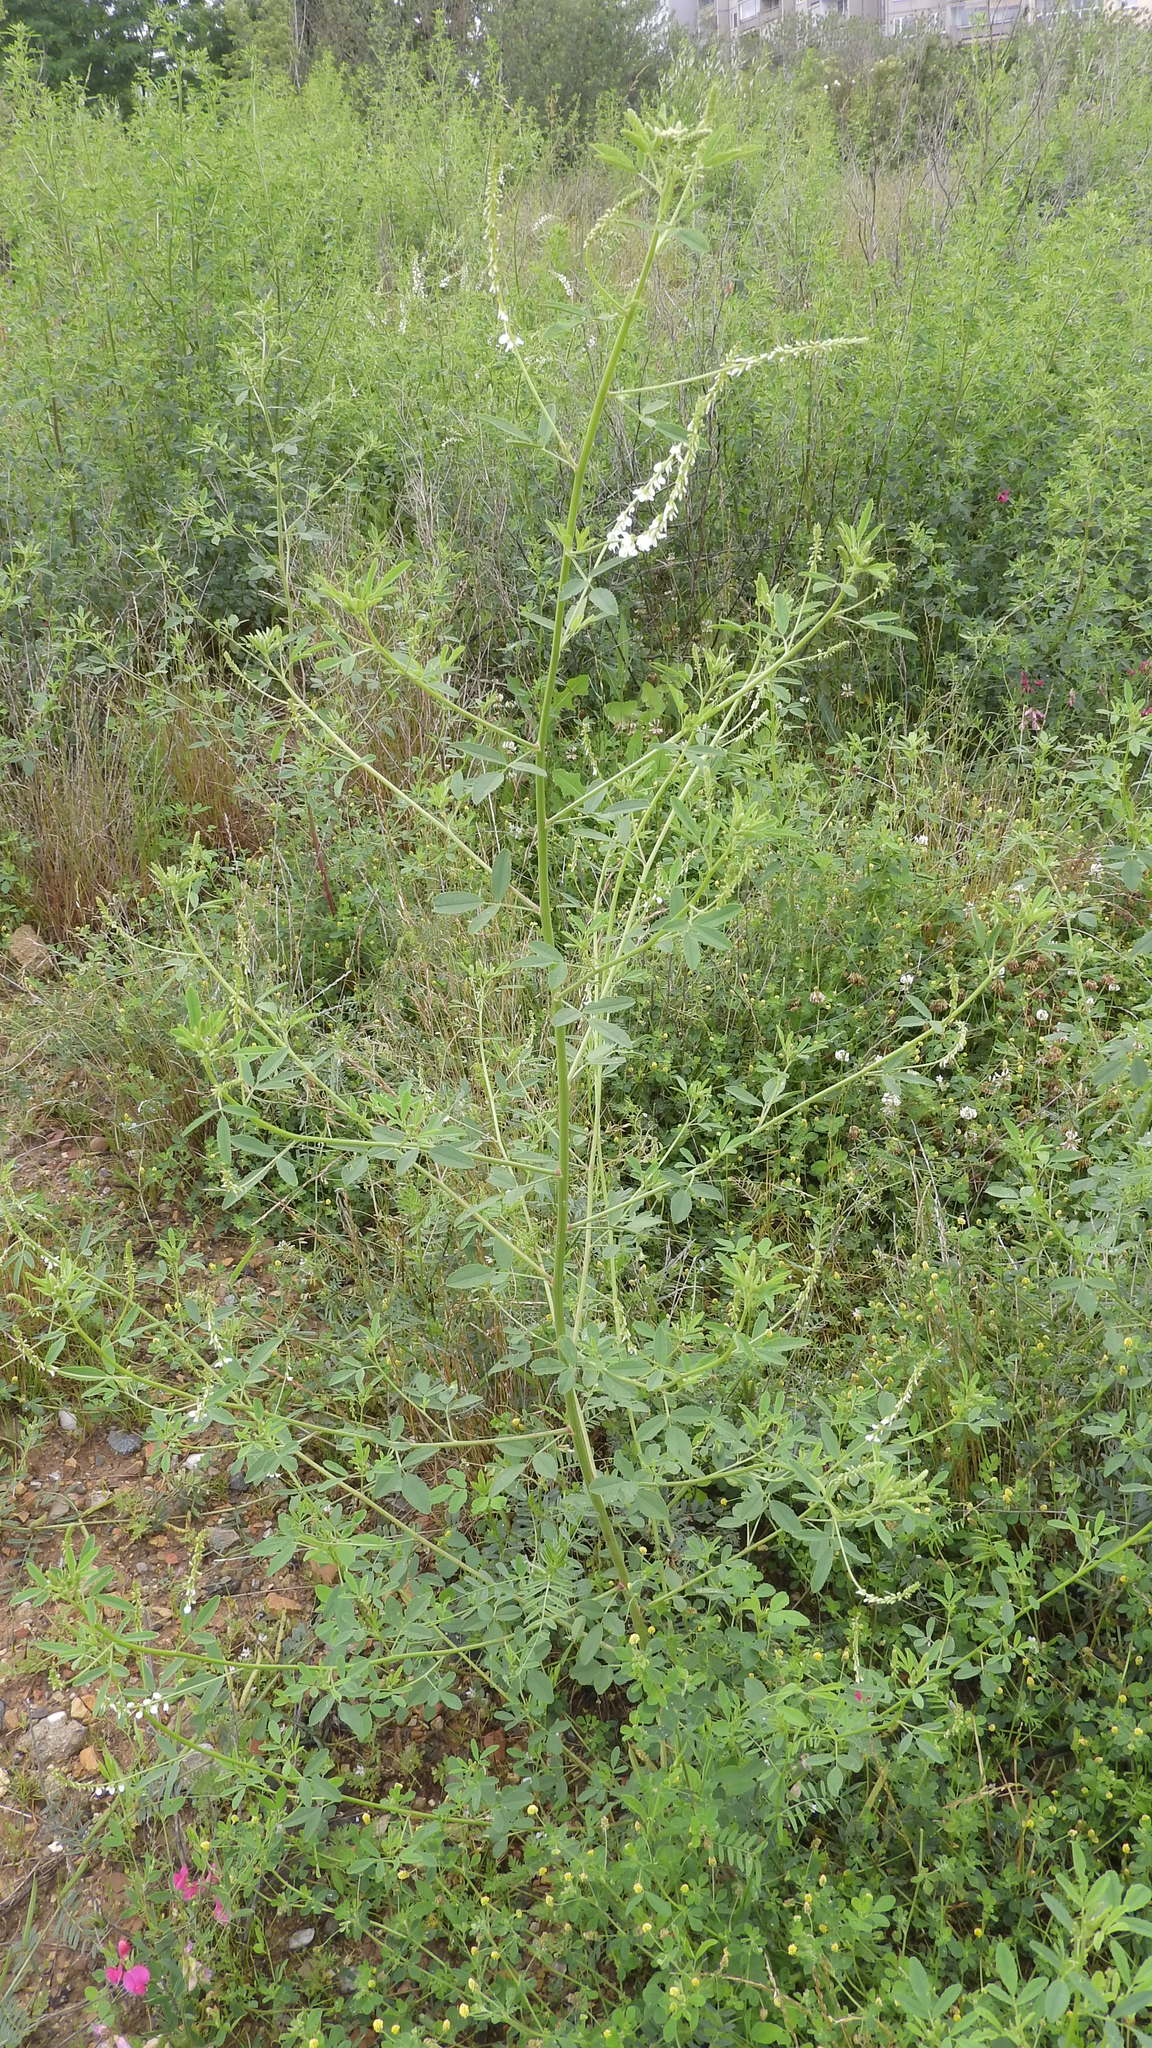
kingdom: Plantae
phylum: Tracheophyta
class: Magnoliopsida
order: Fabales
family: Fabaceae
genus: Melilotus
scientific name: Melilotus albus
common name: White melilot
